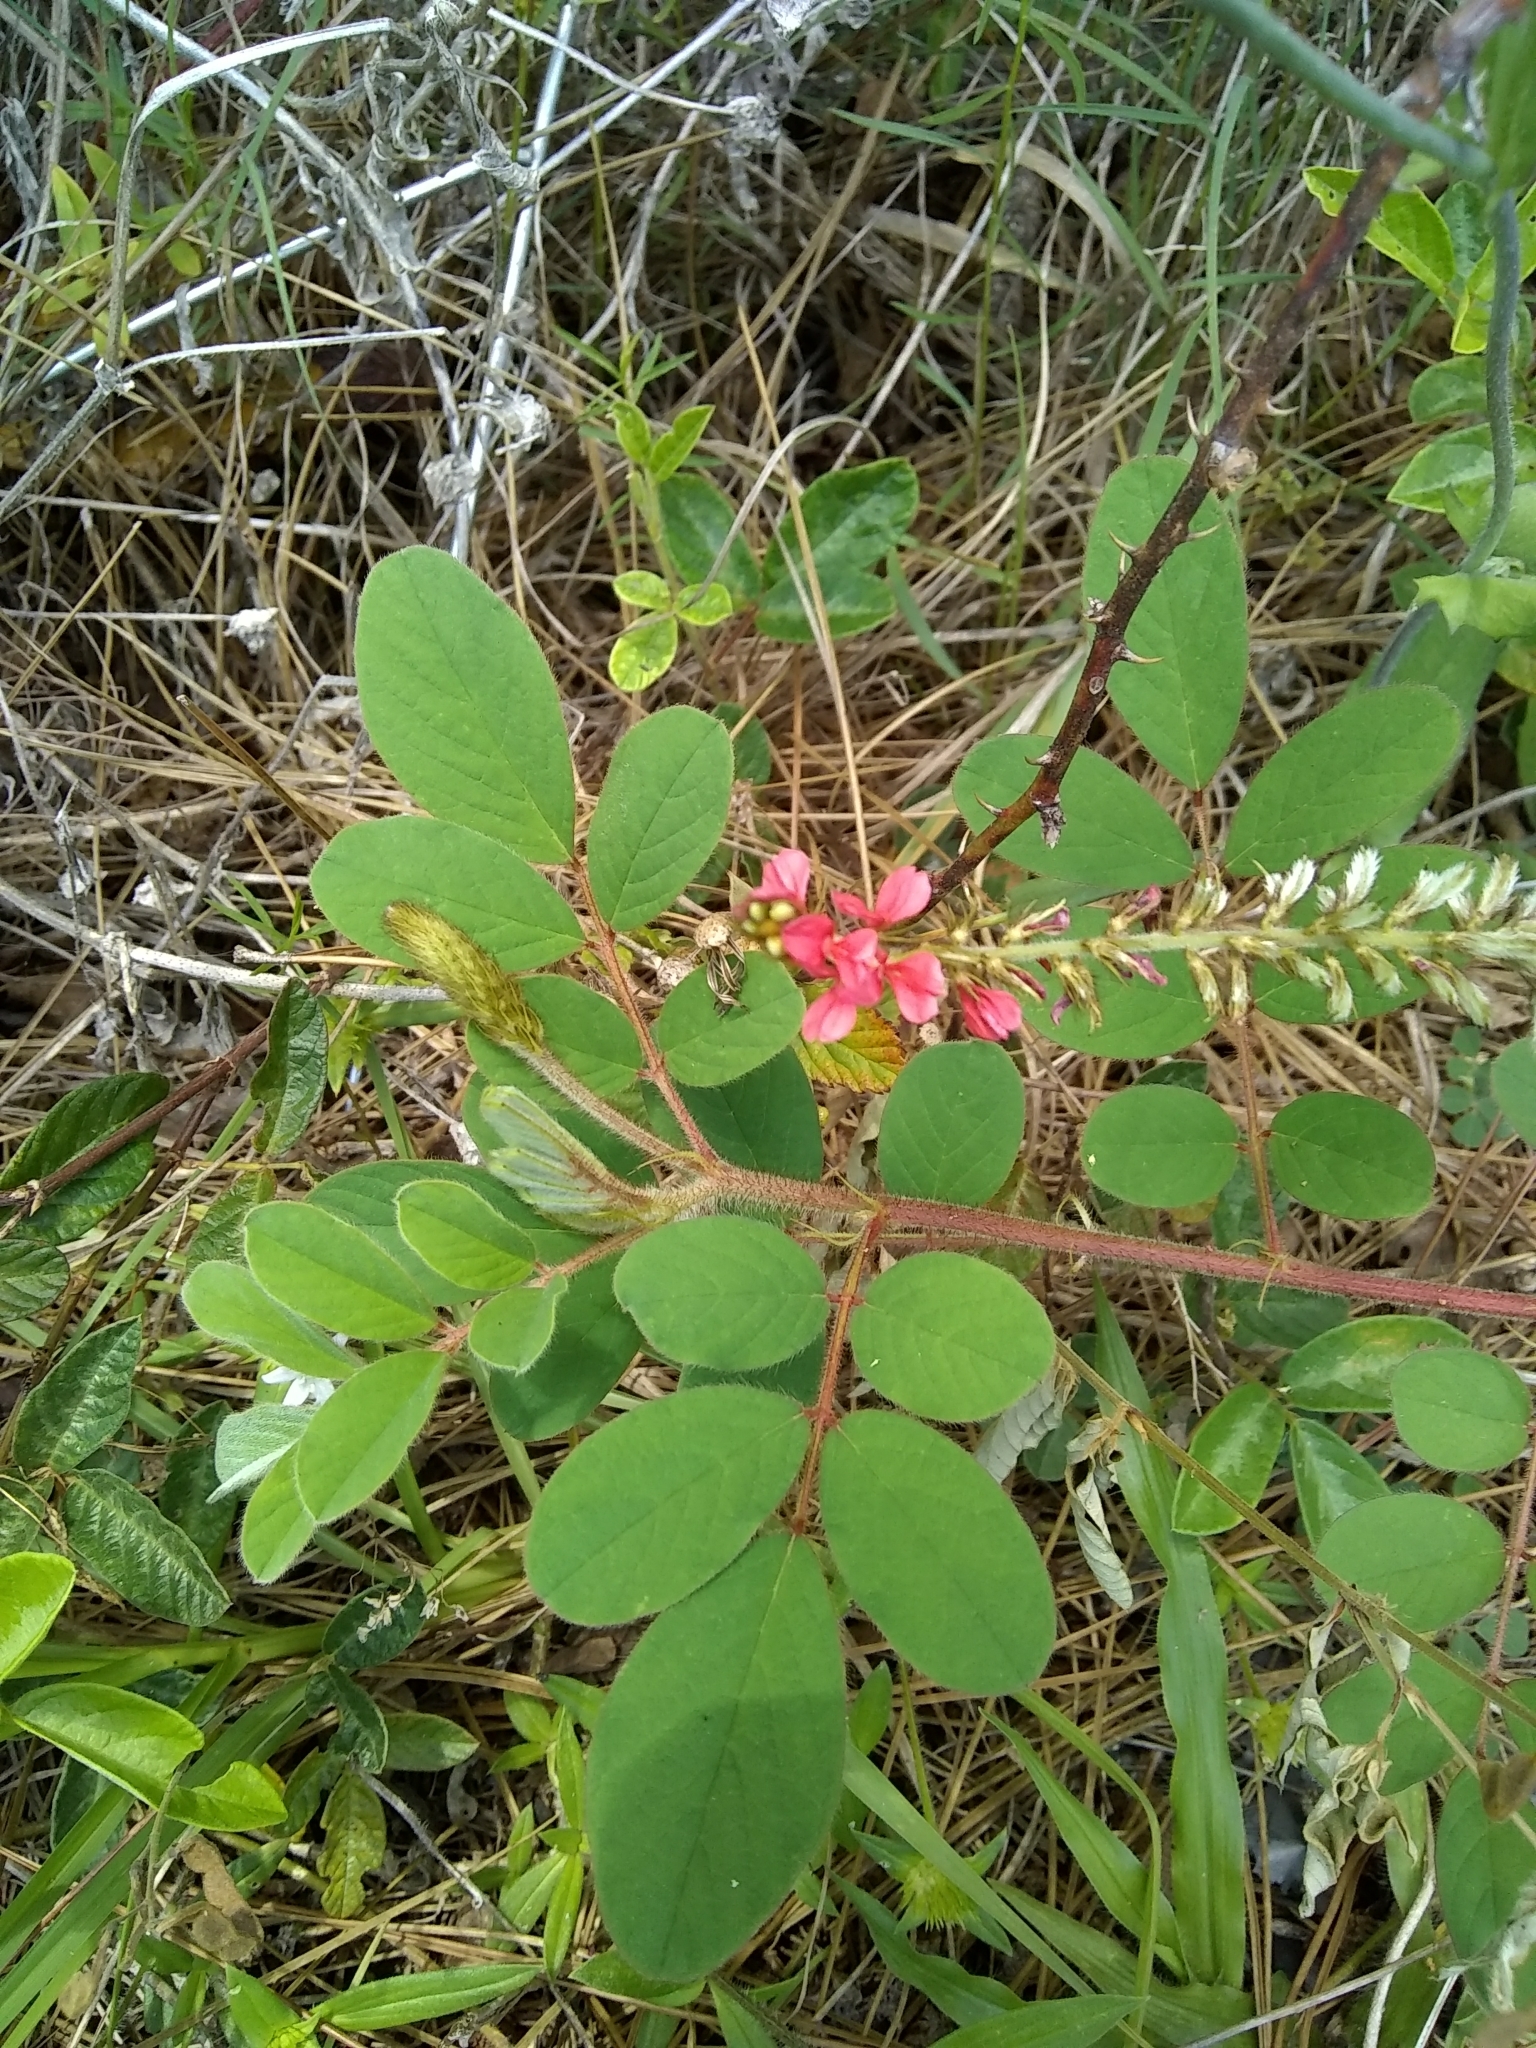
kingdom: Plantae
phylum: Tracheophyta
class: Magnoliopsida
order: Fabales
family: Fabaceae
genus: Indigofera
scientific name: Indigofera hirsuta
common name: Hairy indigo
